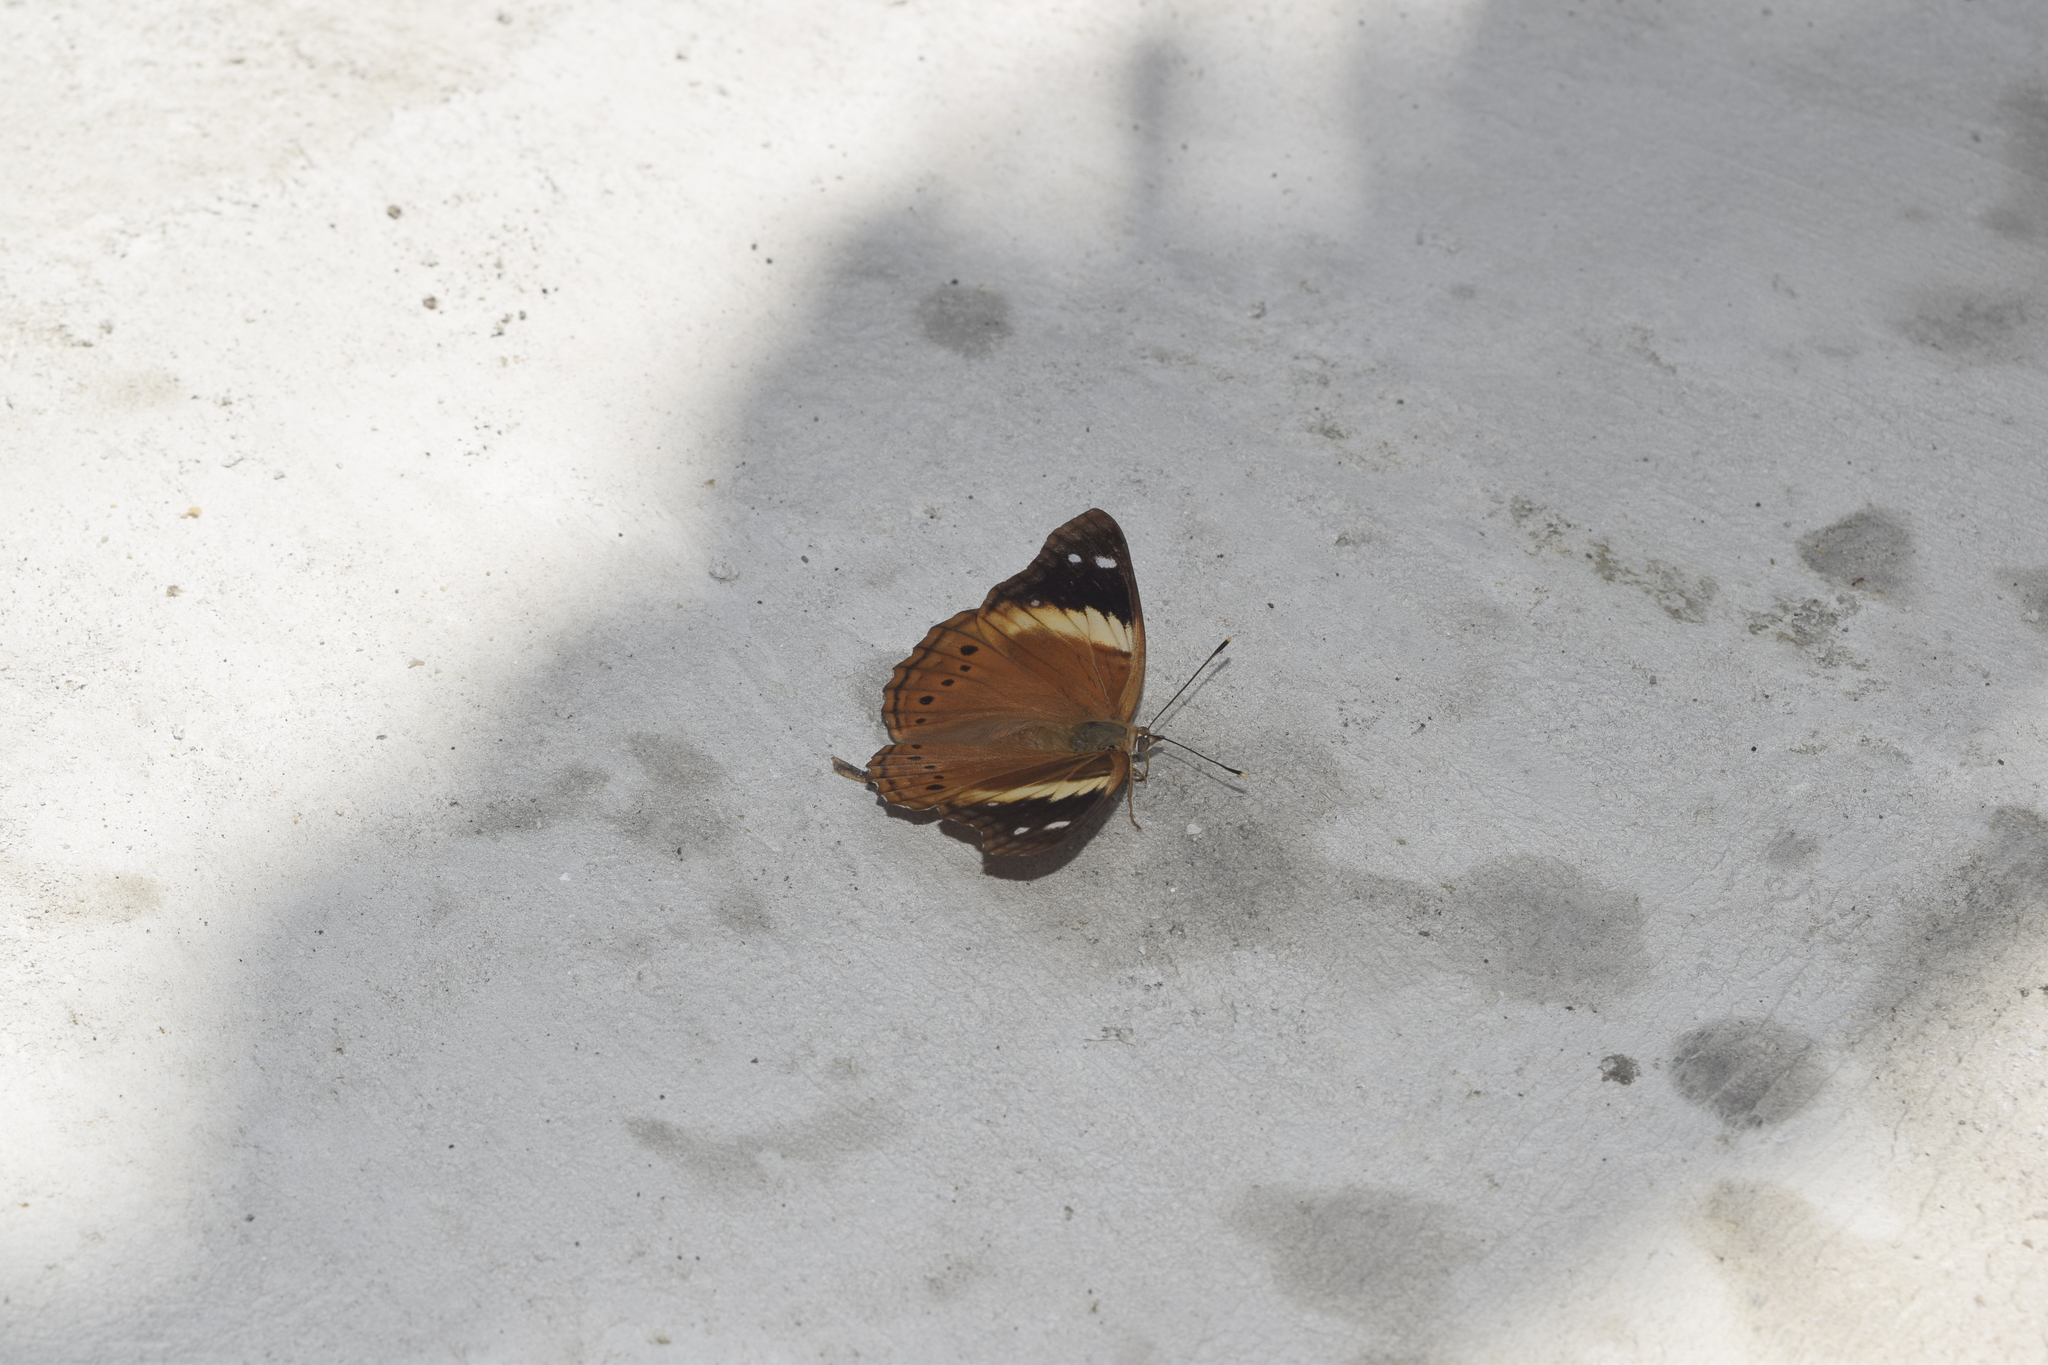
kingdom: Animalia
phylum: Arthropoda
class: Insecta
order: Lepidoptera
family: Nymphalidae
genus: Asterocampa
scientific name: Asterocampa idyja
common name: Dusky emperor
